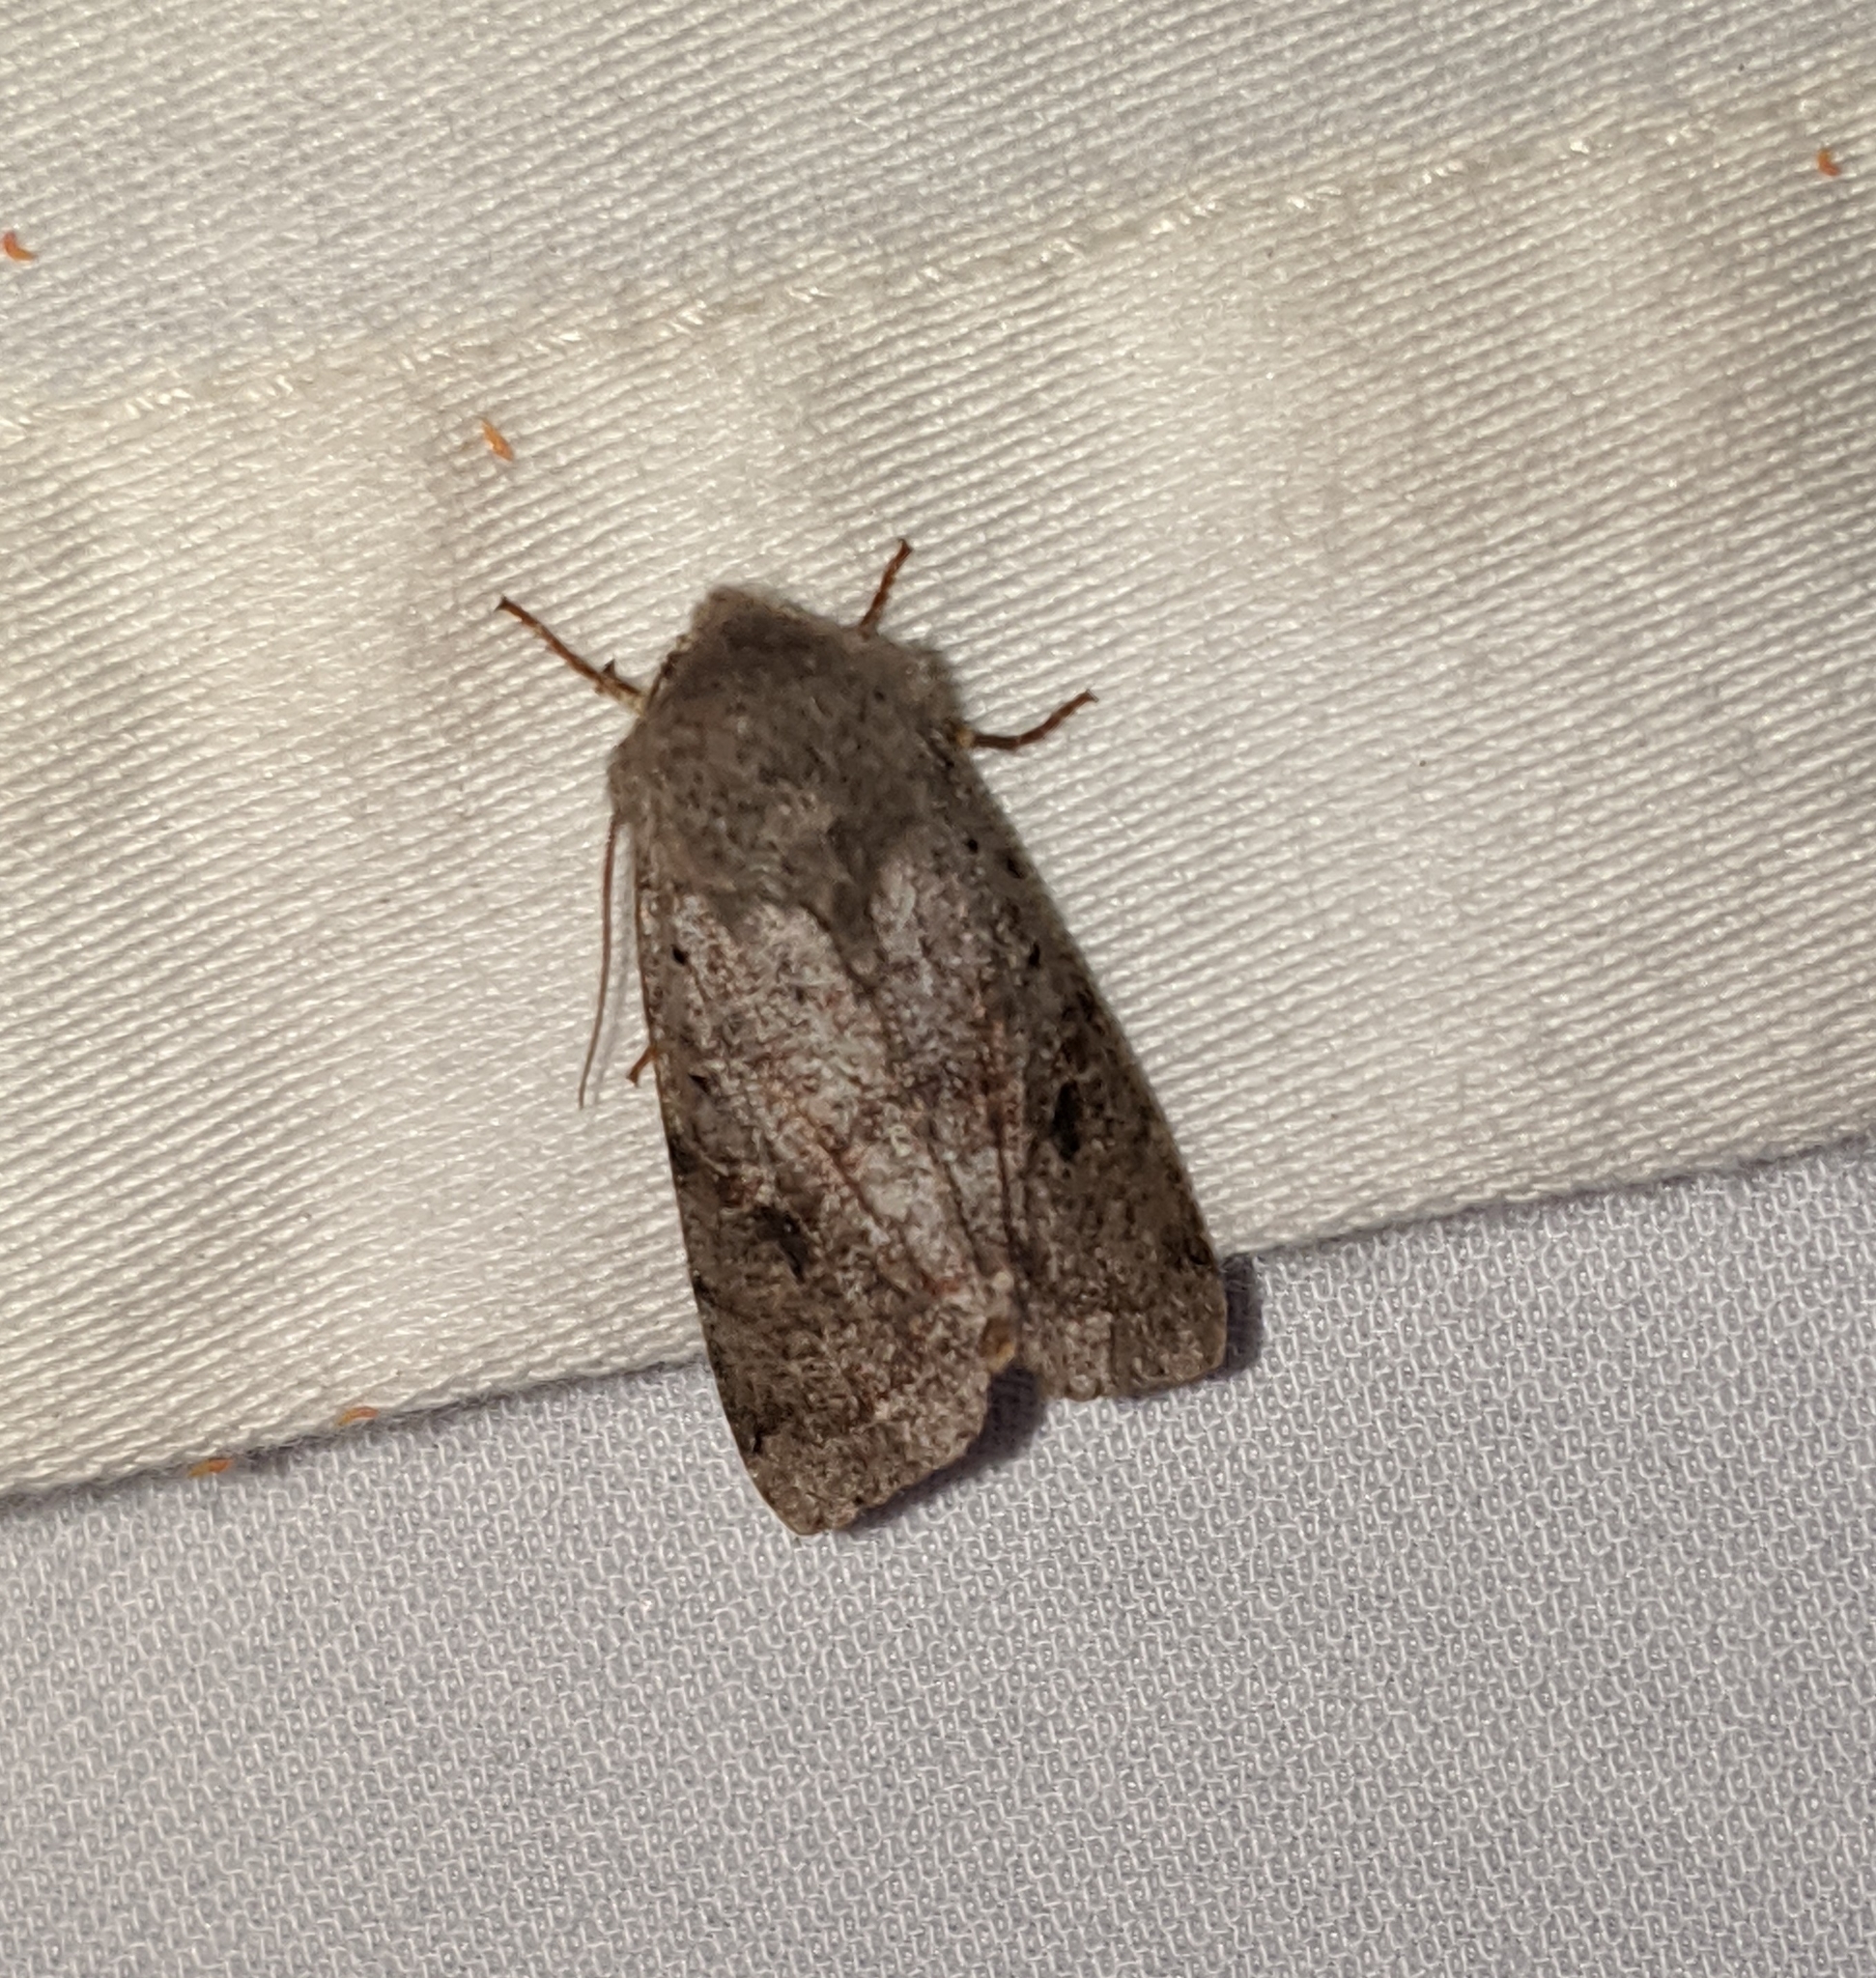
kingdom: Animalia
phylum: Arthropoda
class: Insecta
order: Lepidoptera
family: Noctuidae
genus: Orthosia
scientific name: Orthosia hibisci
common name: Green fruitworm
